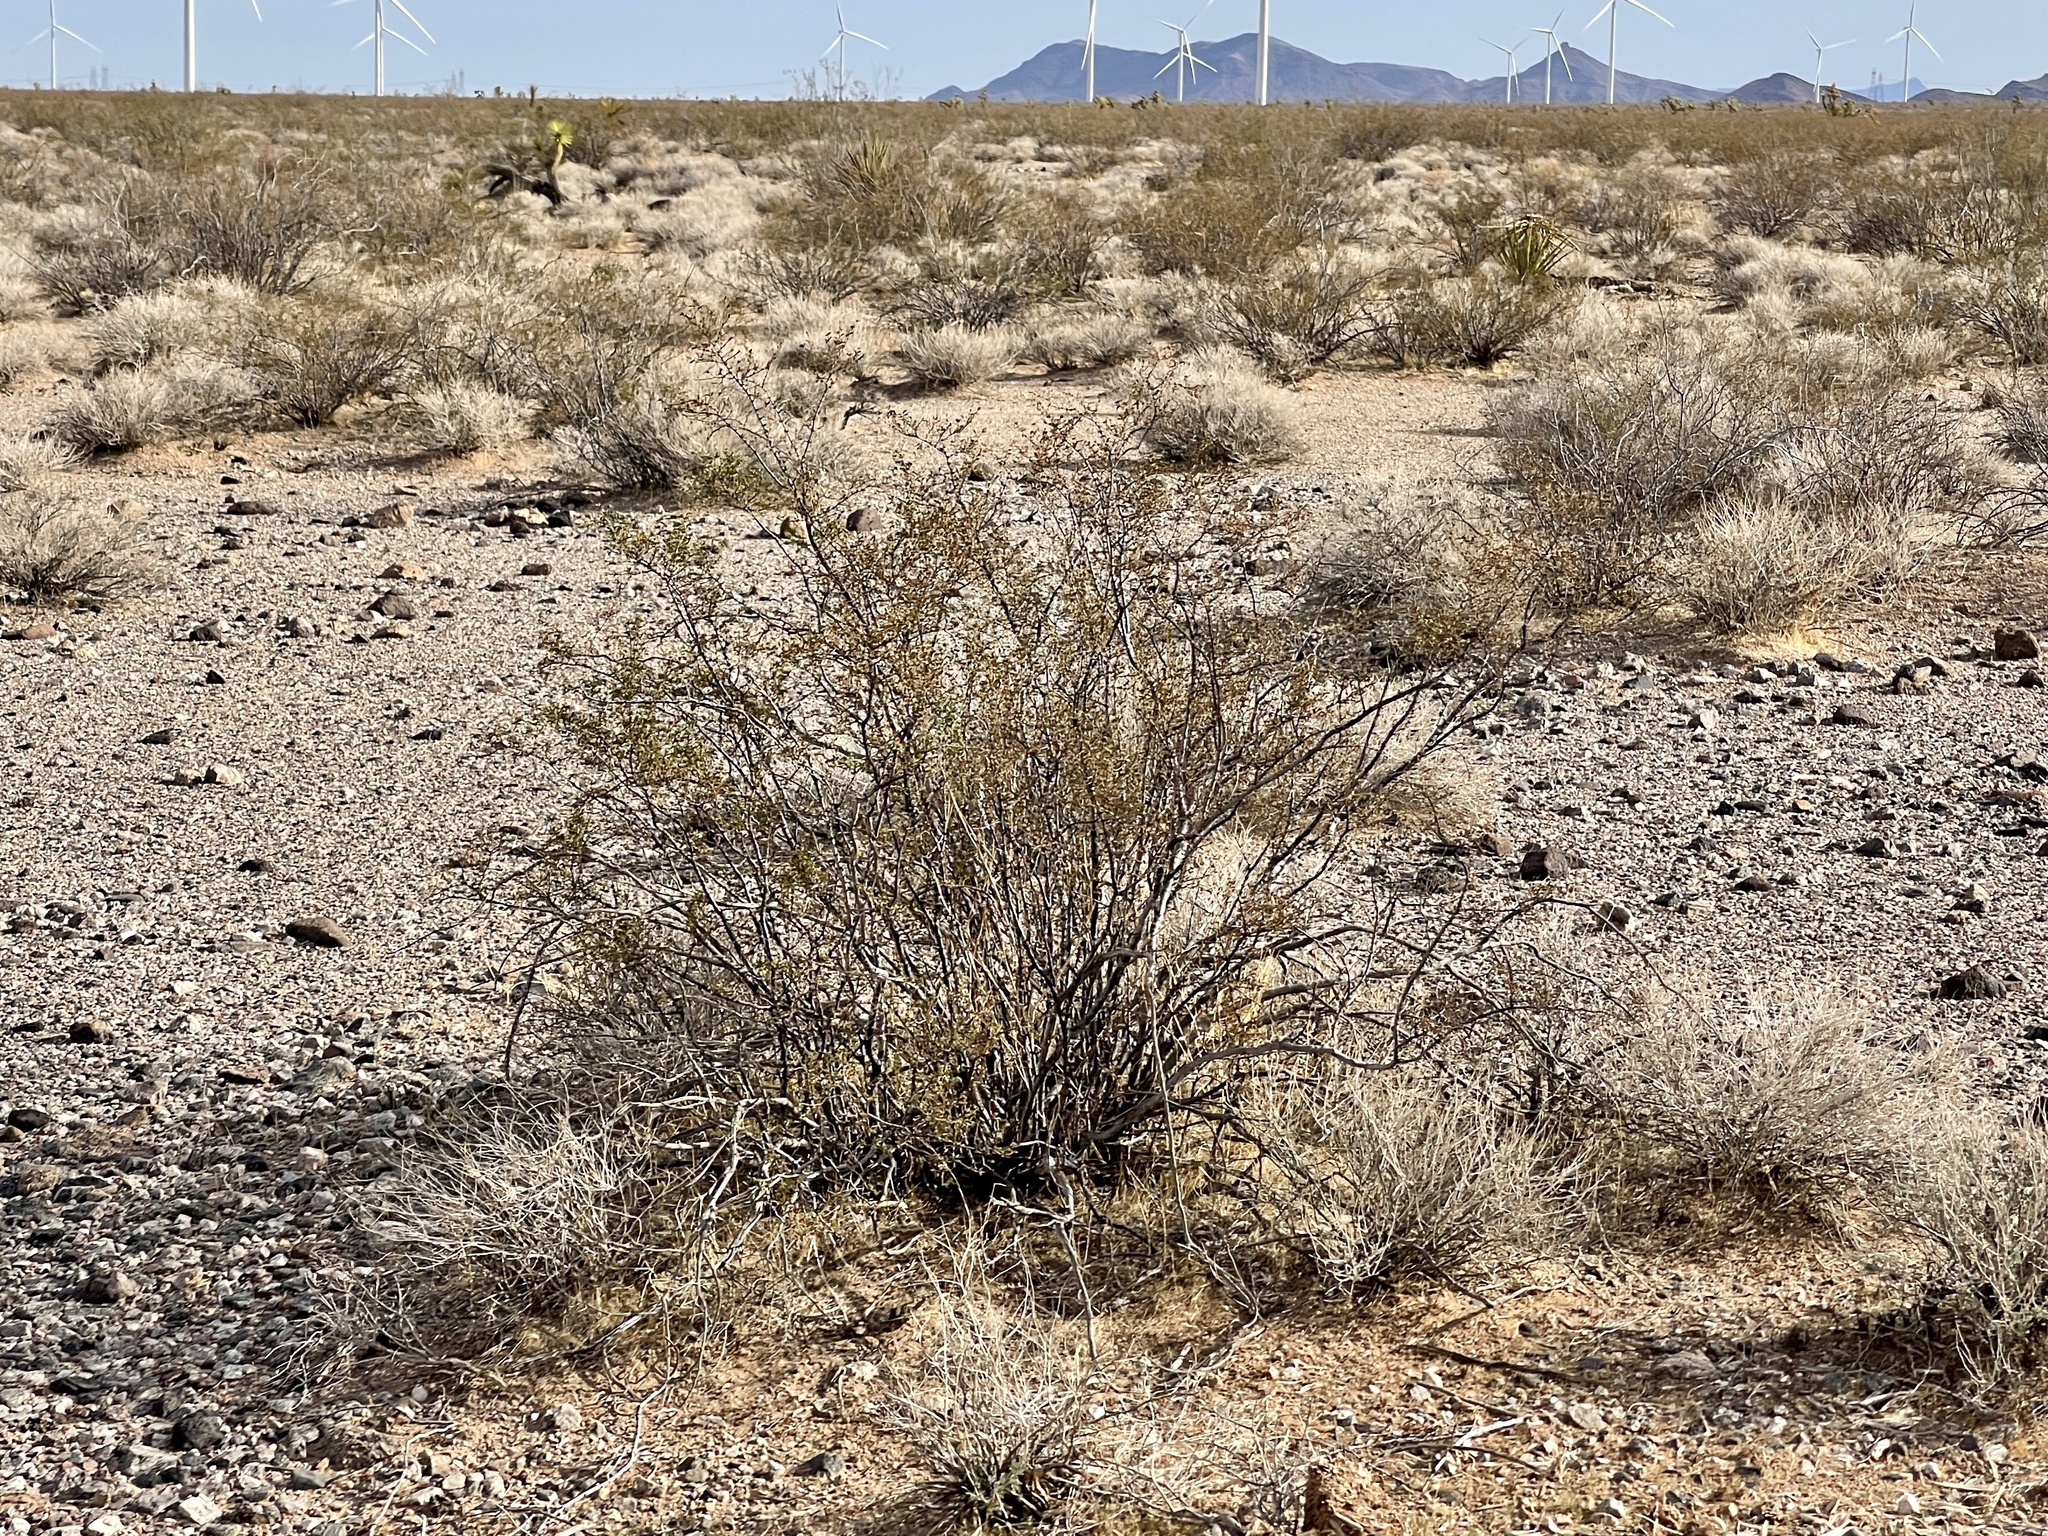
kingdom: Plantae
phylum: Tracheophyta
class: Magnoliopsida
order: Zygophyllales
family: Zygophyllaceae
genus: Larrea
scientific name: Larrea tridentata
